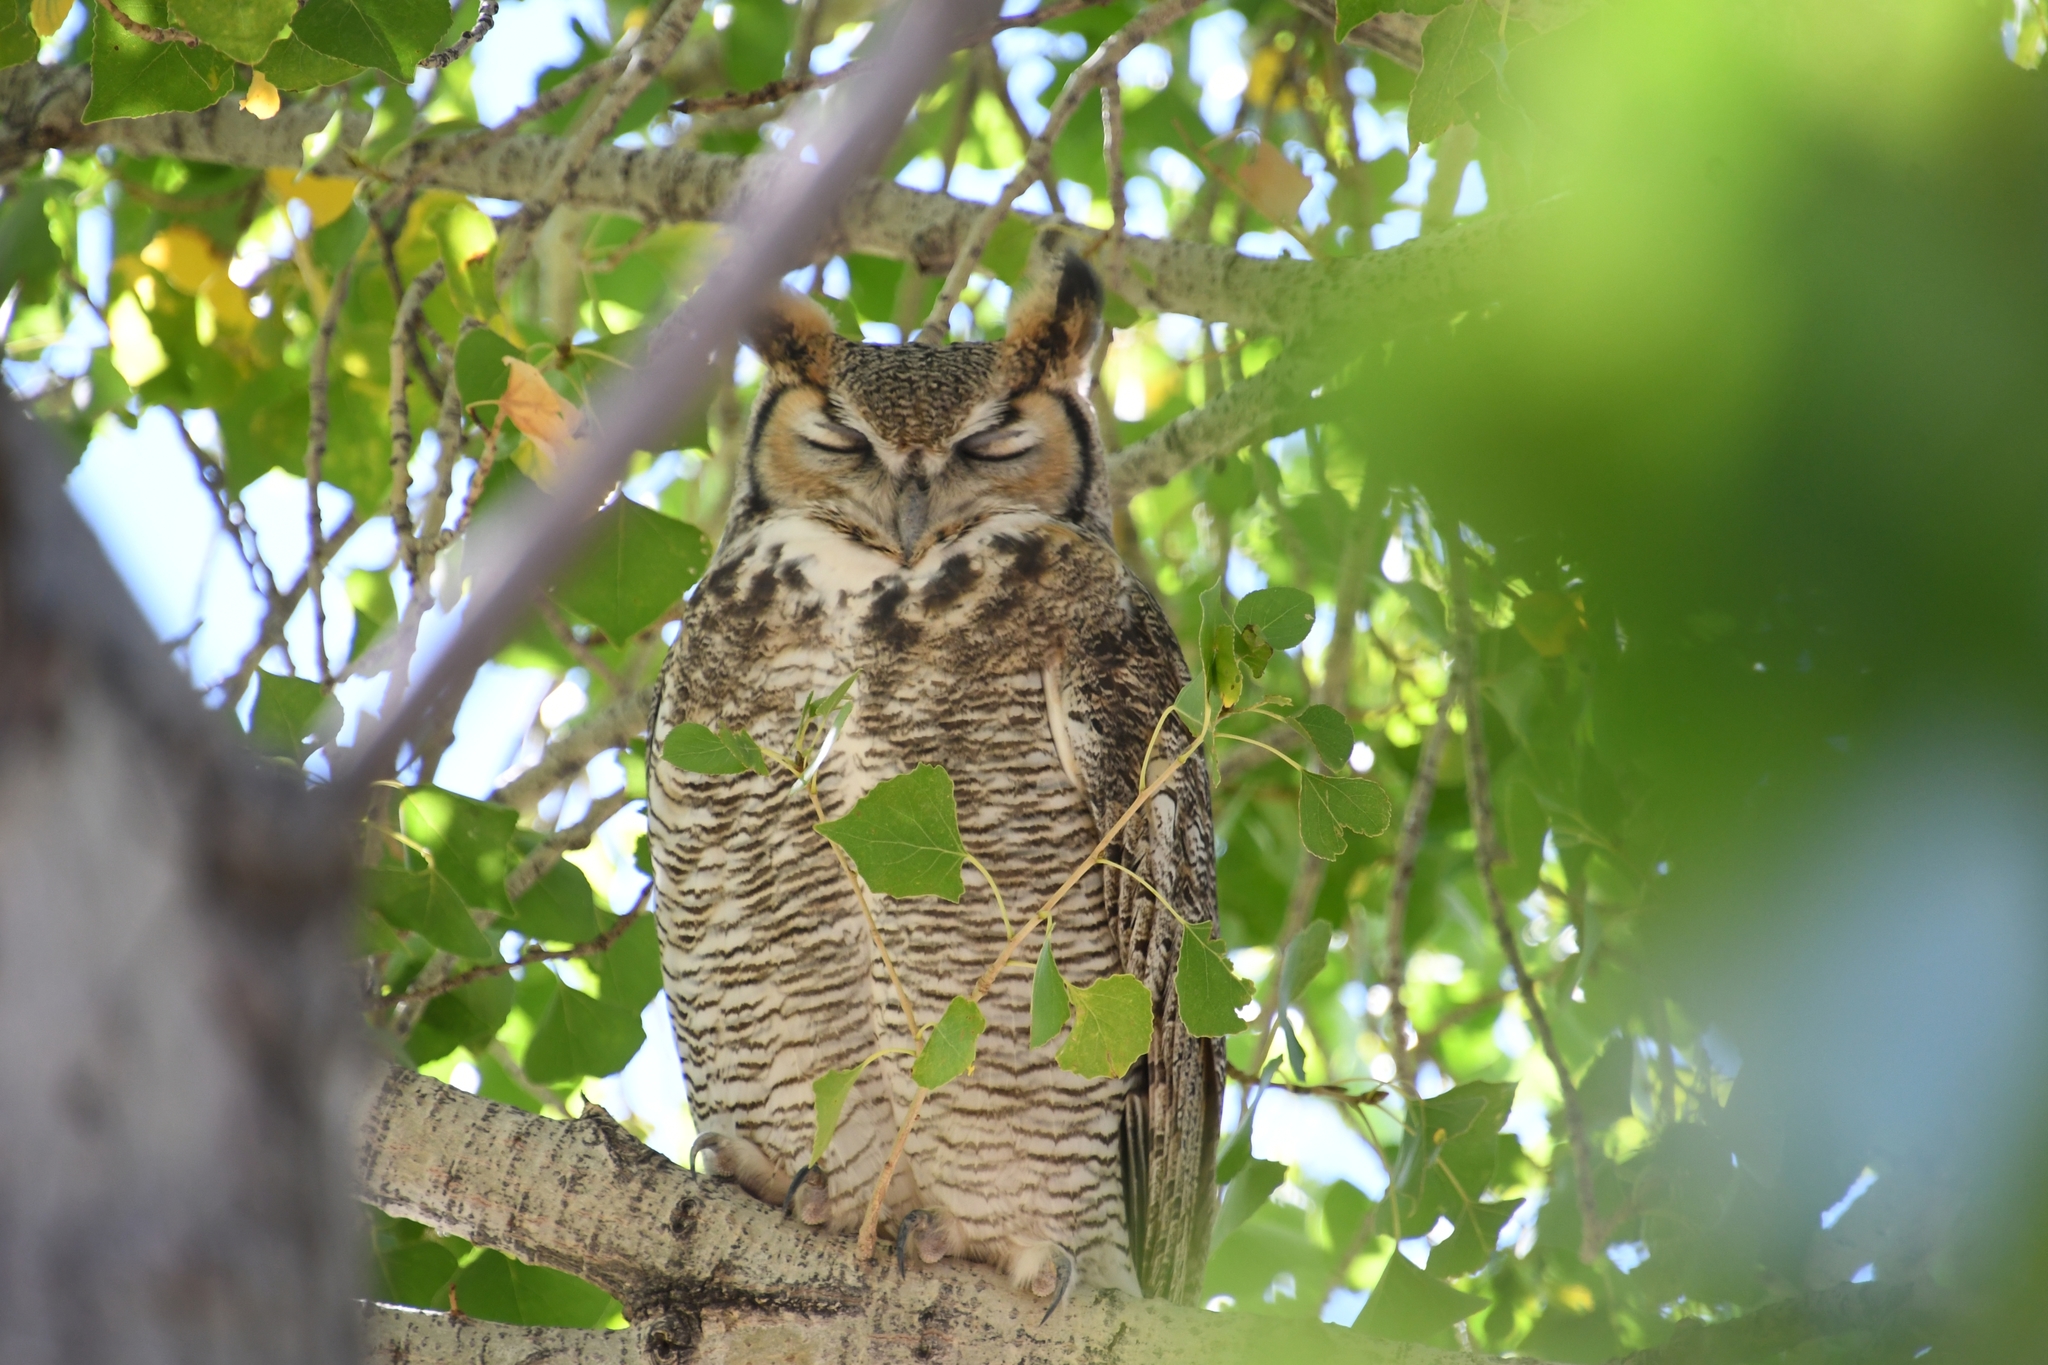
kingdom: Animalia
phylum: Chordata
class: Aves
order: Strigiformes
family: Strigidae
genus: Bubo
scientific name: Bubo virginianus
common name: Great horned owl
